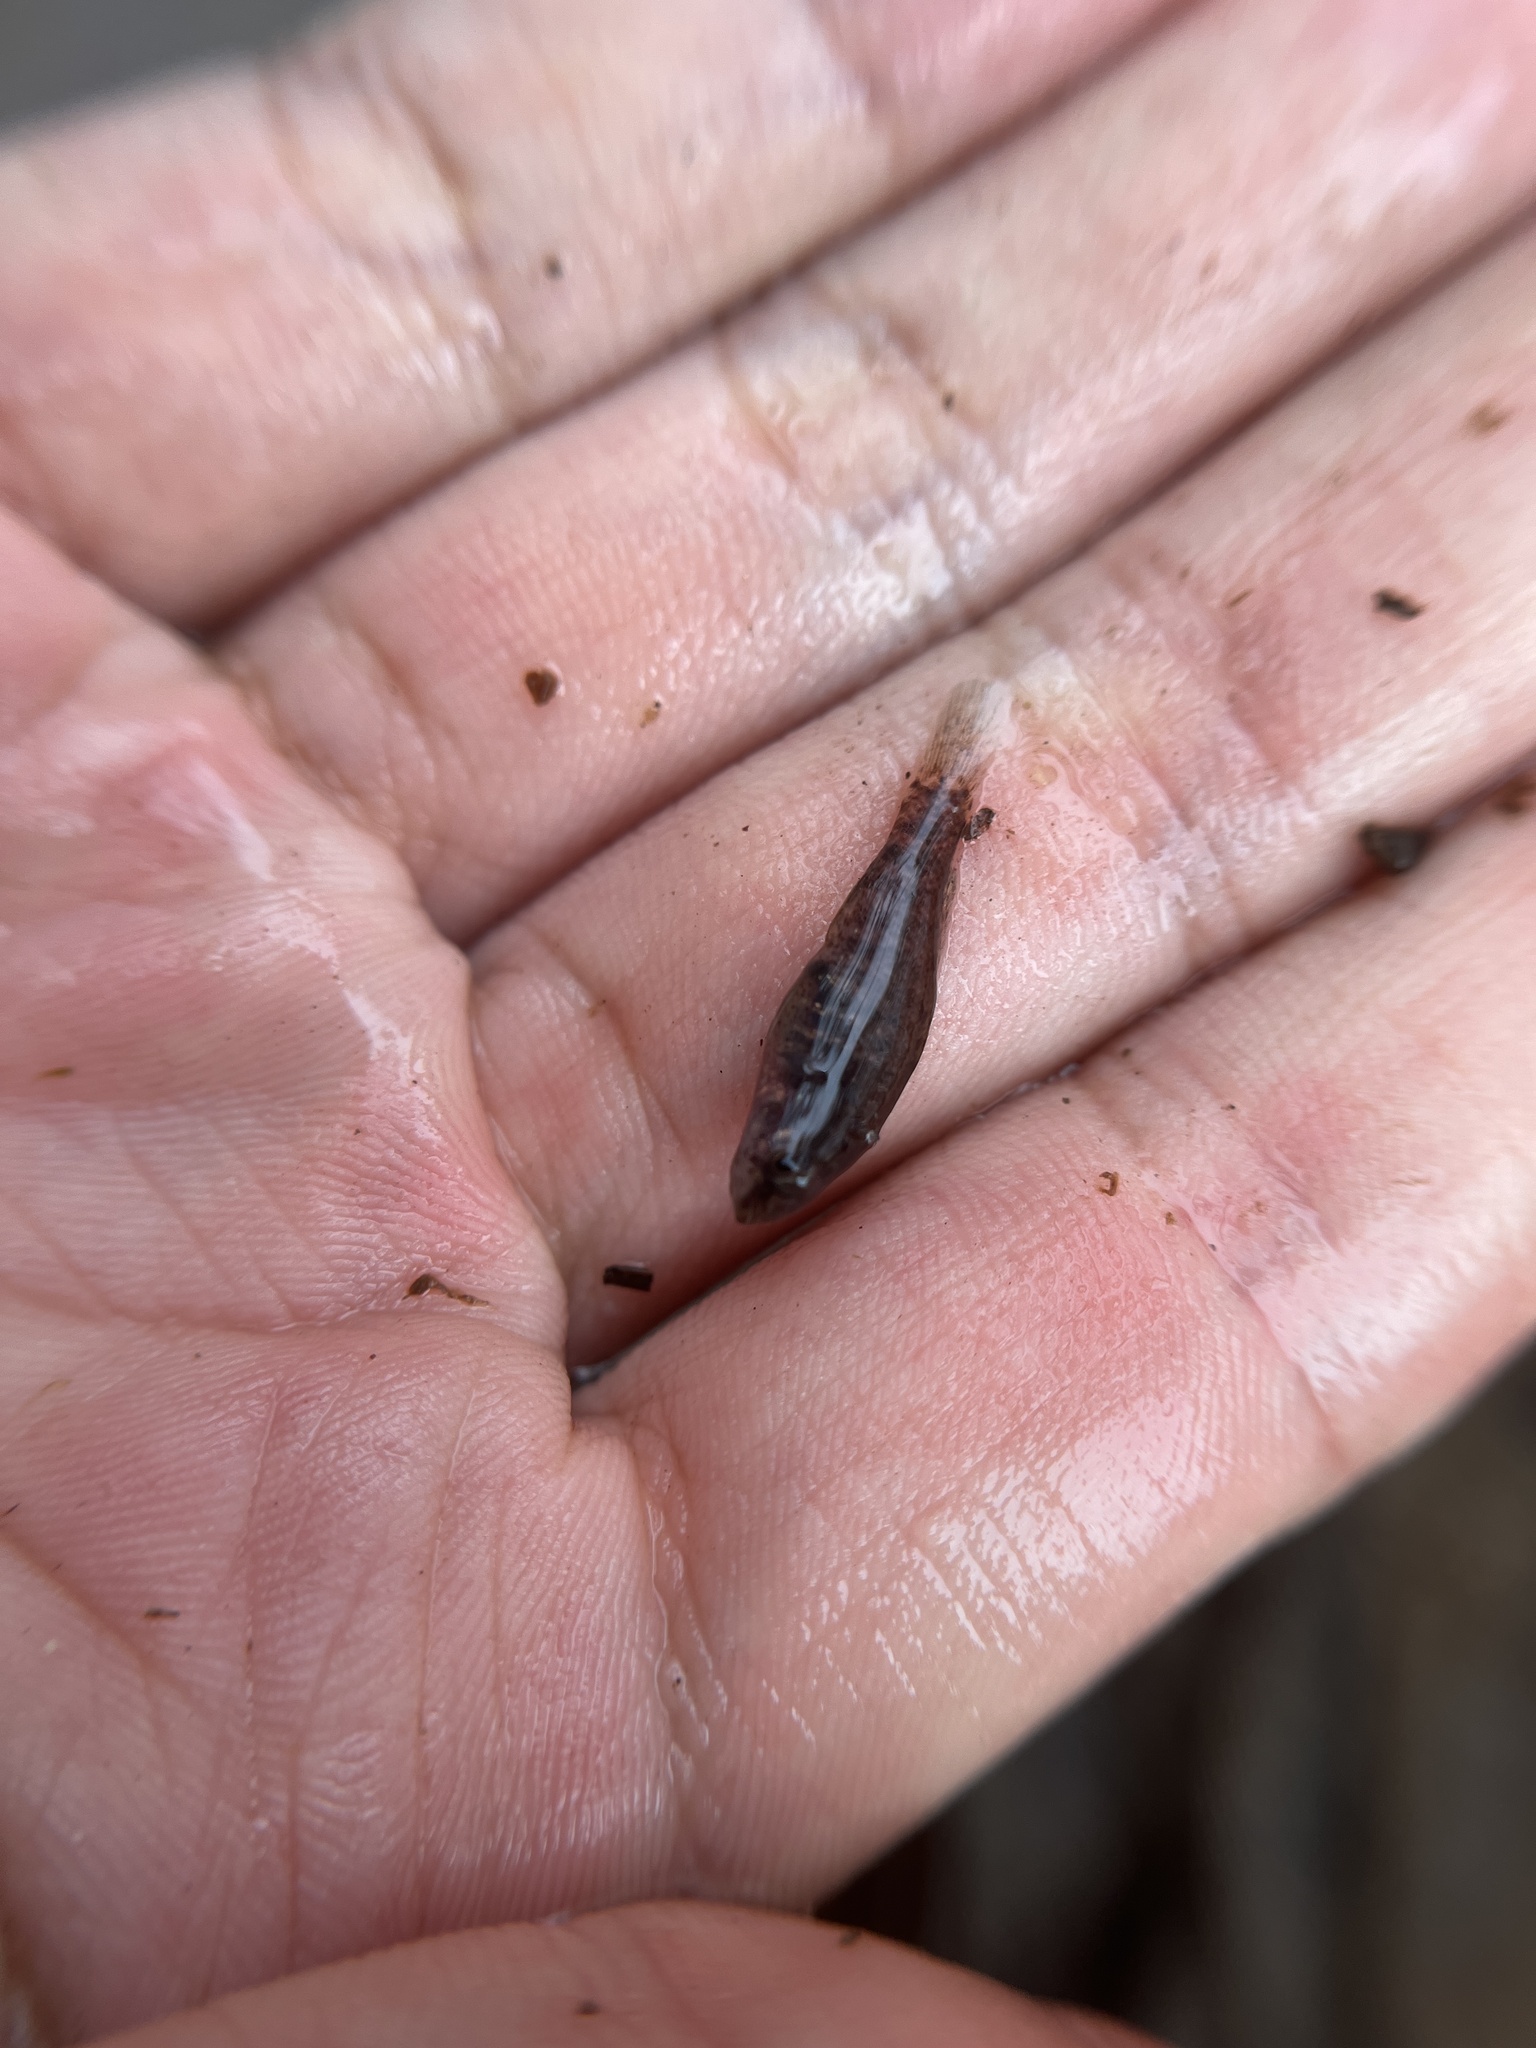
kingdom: Animalia
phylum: Chordata
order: Perciformes
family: Elassomatidae
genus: Elassoma
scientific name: Elassoma zonatum
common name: Banded pygmy sunfish
